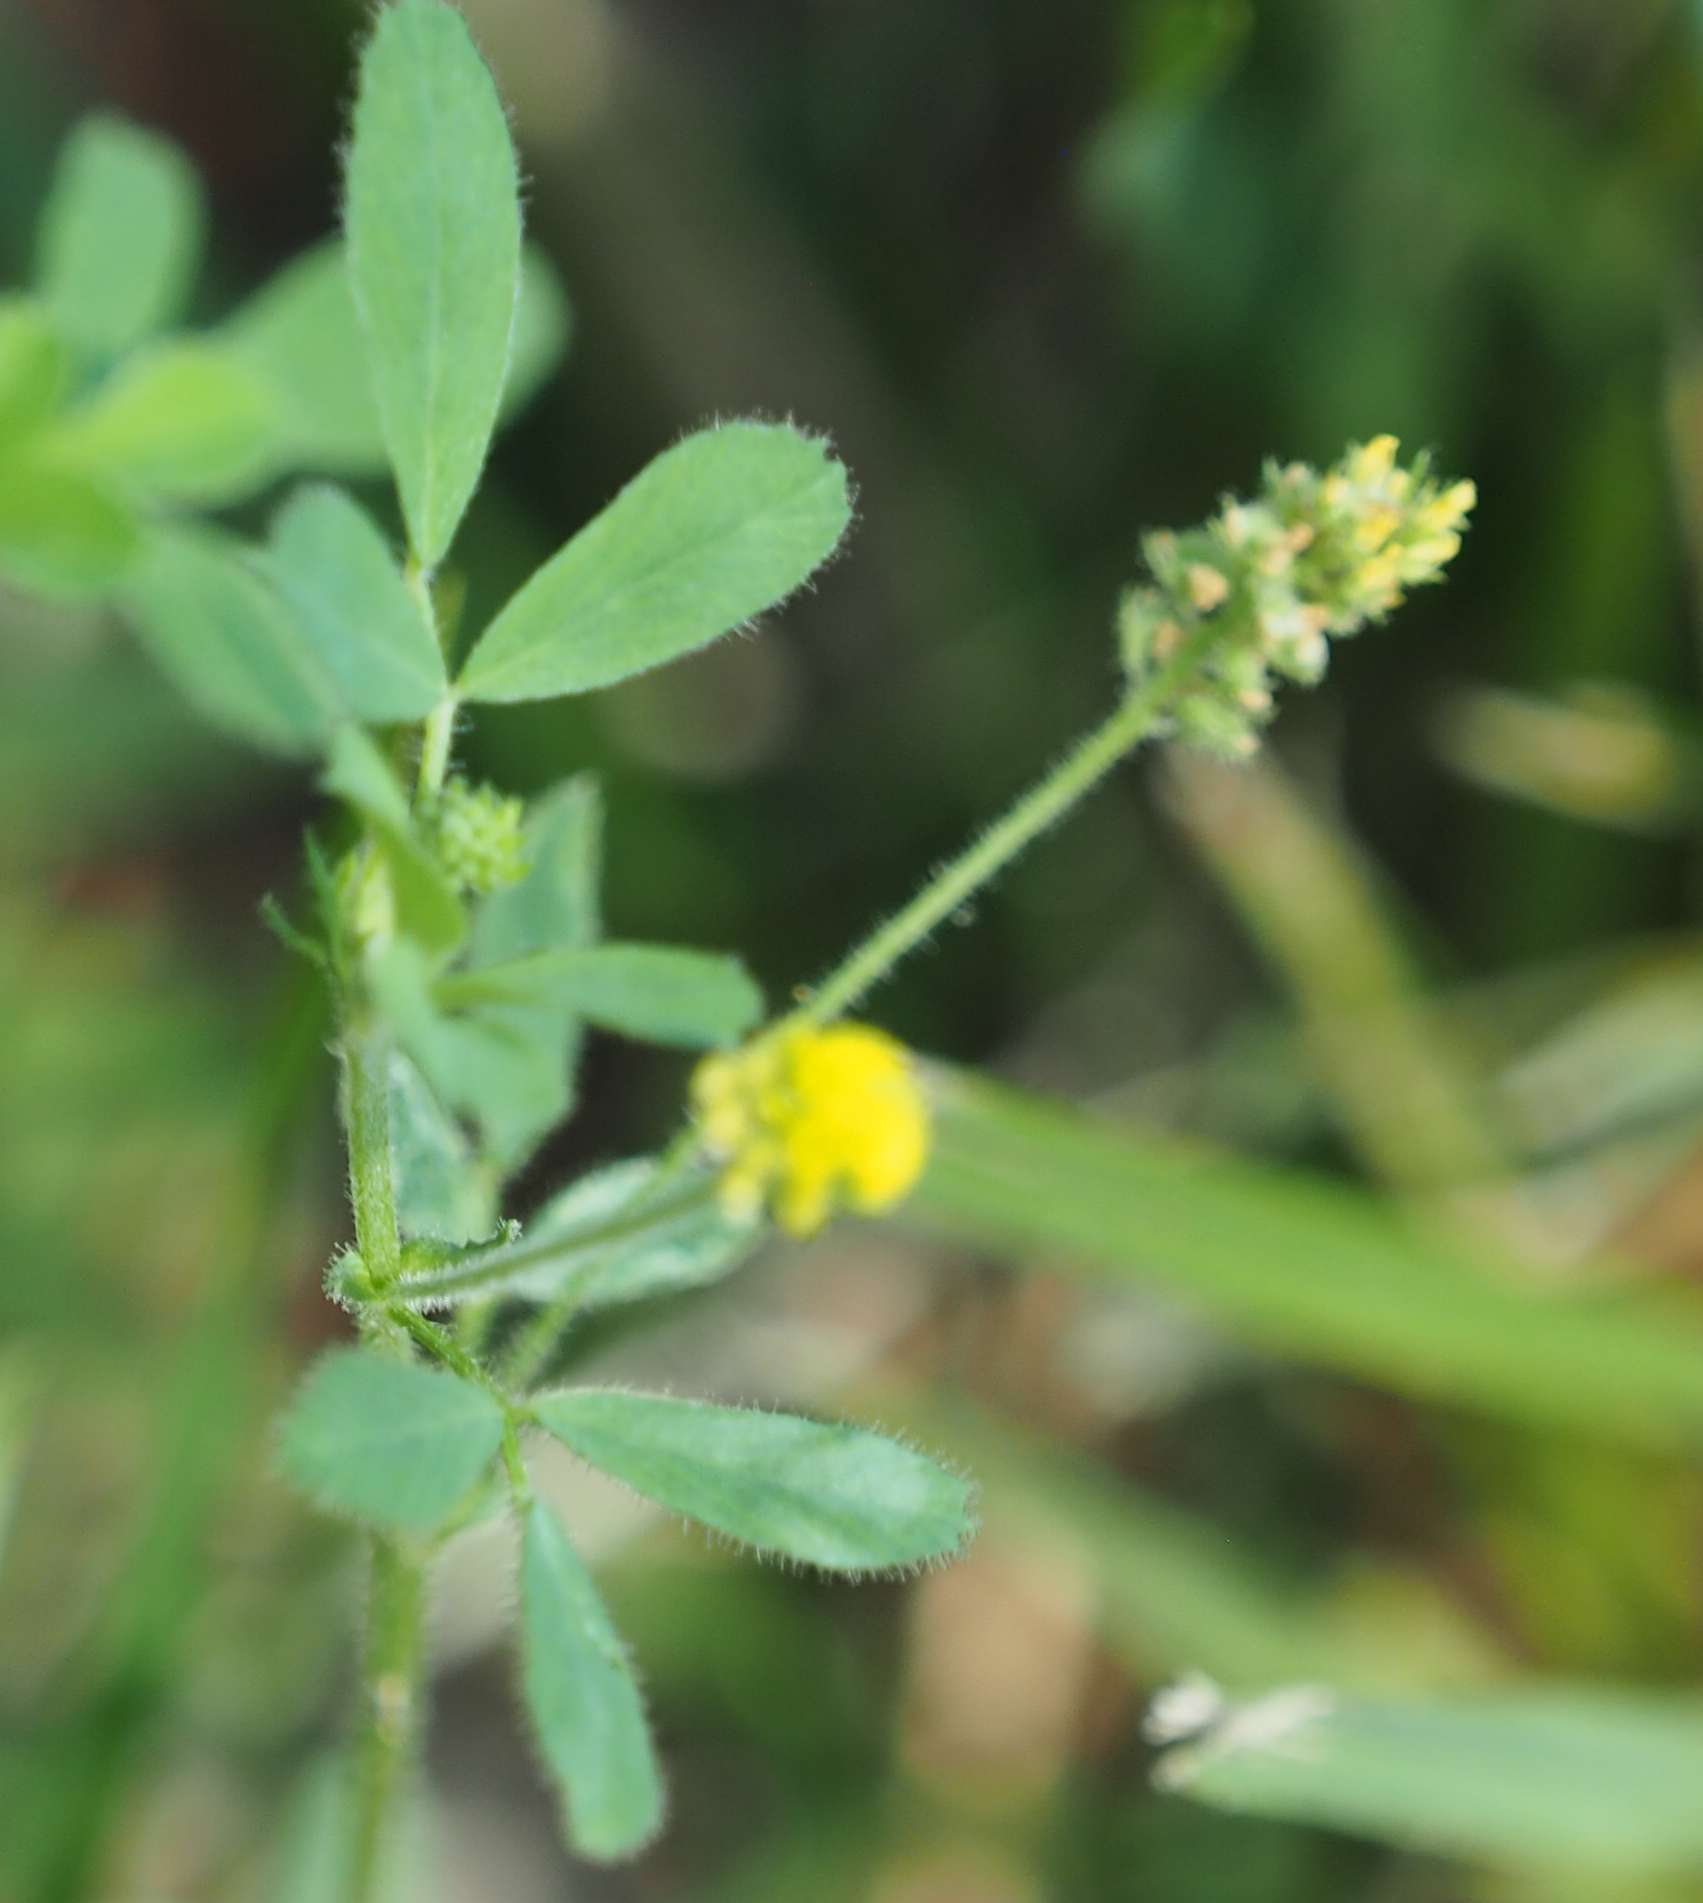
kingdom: Plantae
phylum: Tracheophyta
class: Magnoliopsida
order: Fabales
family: Fabaceae
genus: Medicago
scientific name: Medicago lupulina
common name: Black medick
